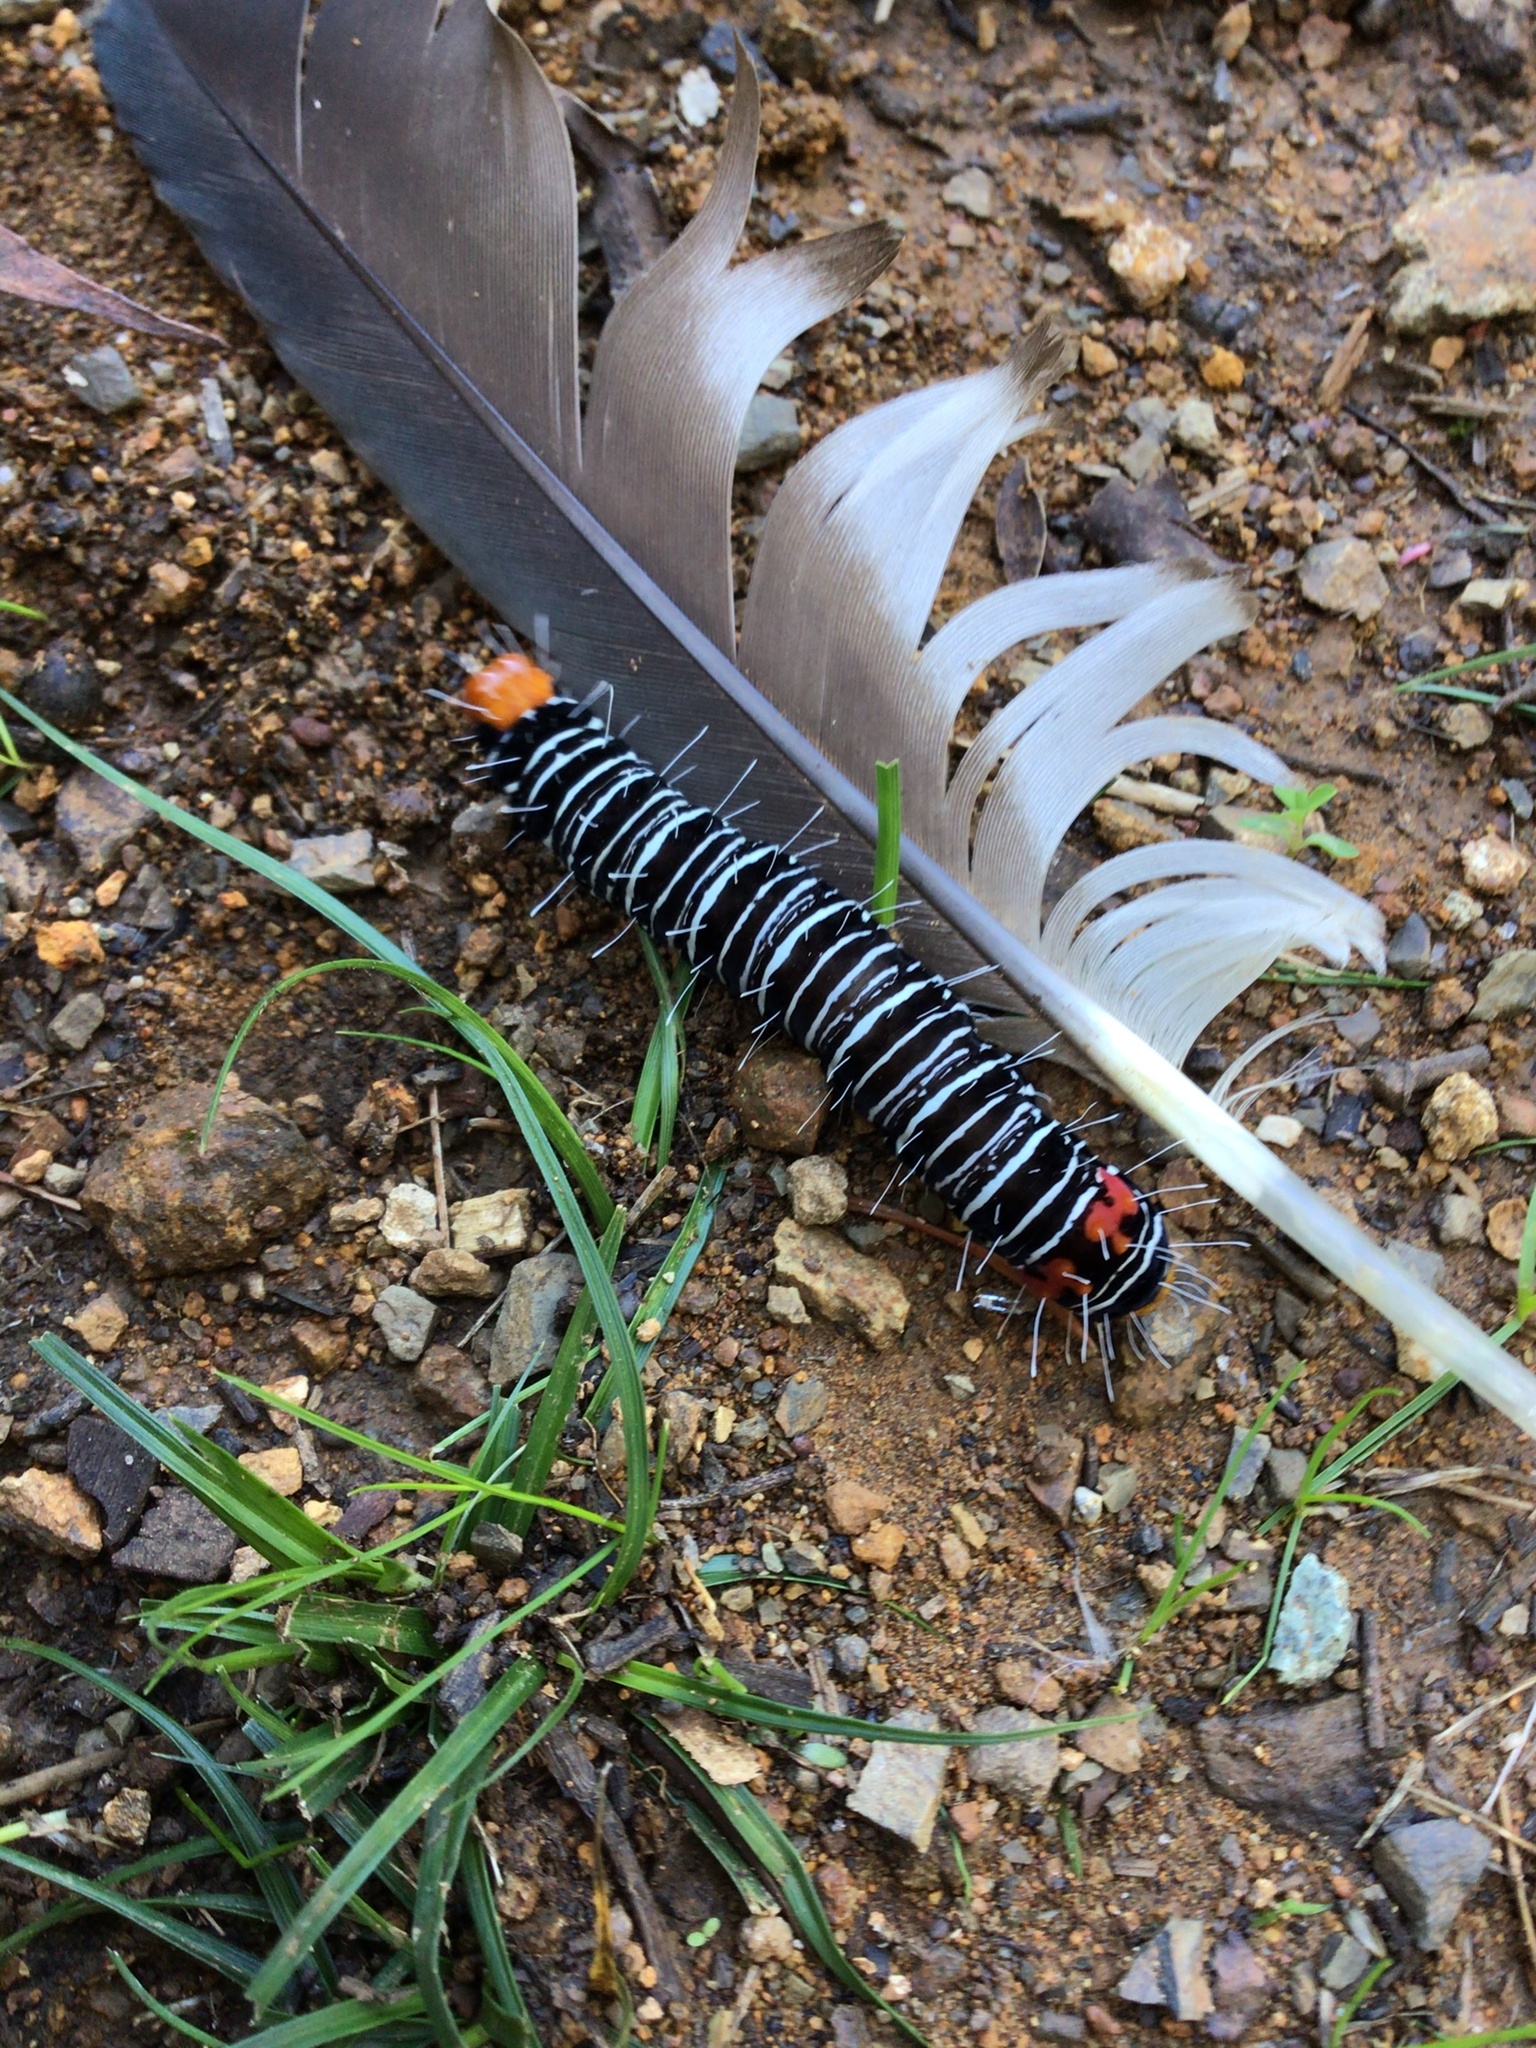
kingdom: Animalia
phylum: Arthropoda
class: Insecta
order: Lepidoptera
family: Noctuidae
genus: Comocrus
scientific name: Comocrus behri
